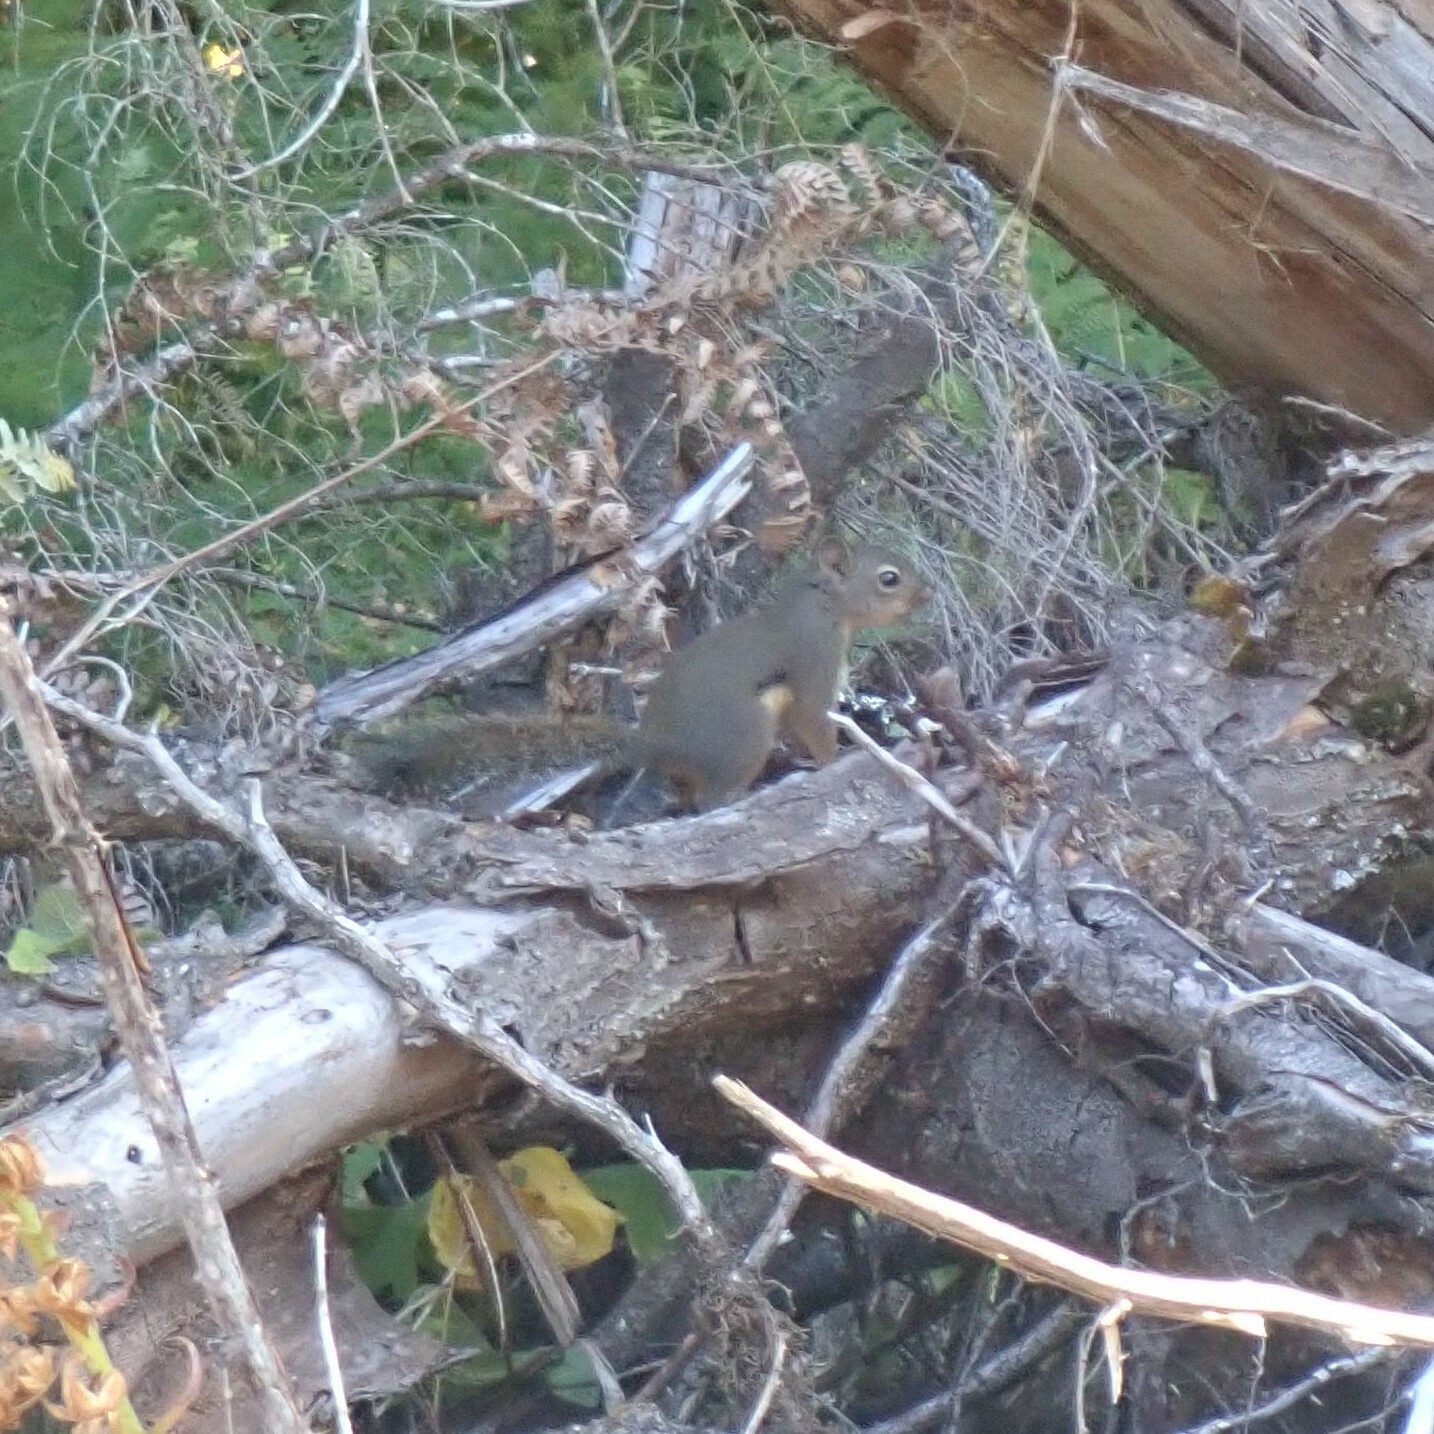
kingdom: Animalia
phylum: Chordata
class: Mammalia
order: Rodentia
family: Sciuridae
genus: Tamiasciurus
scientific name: Tamiasciurus douglasii
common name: Douglas's squirrel
